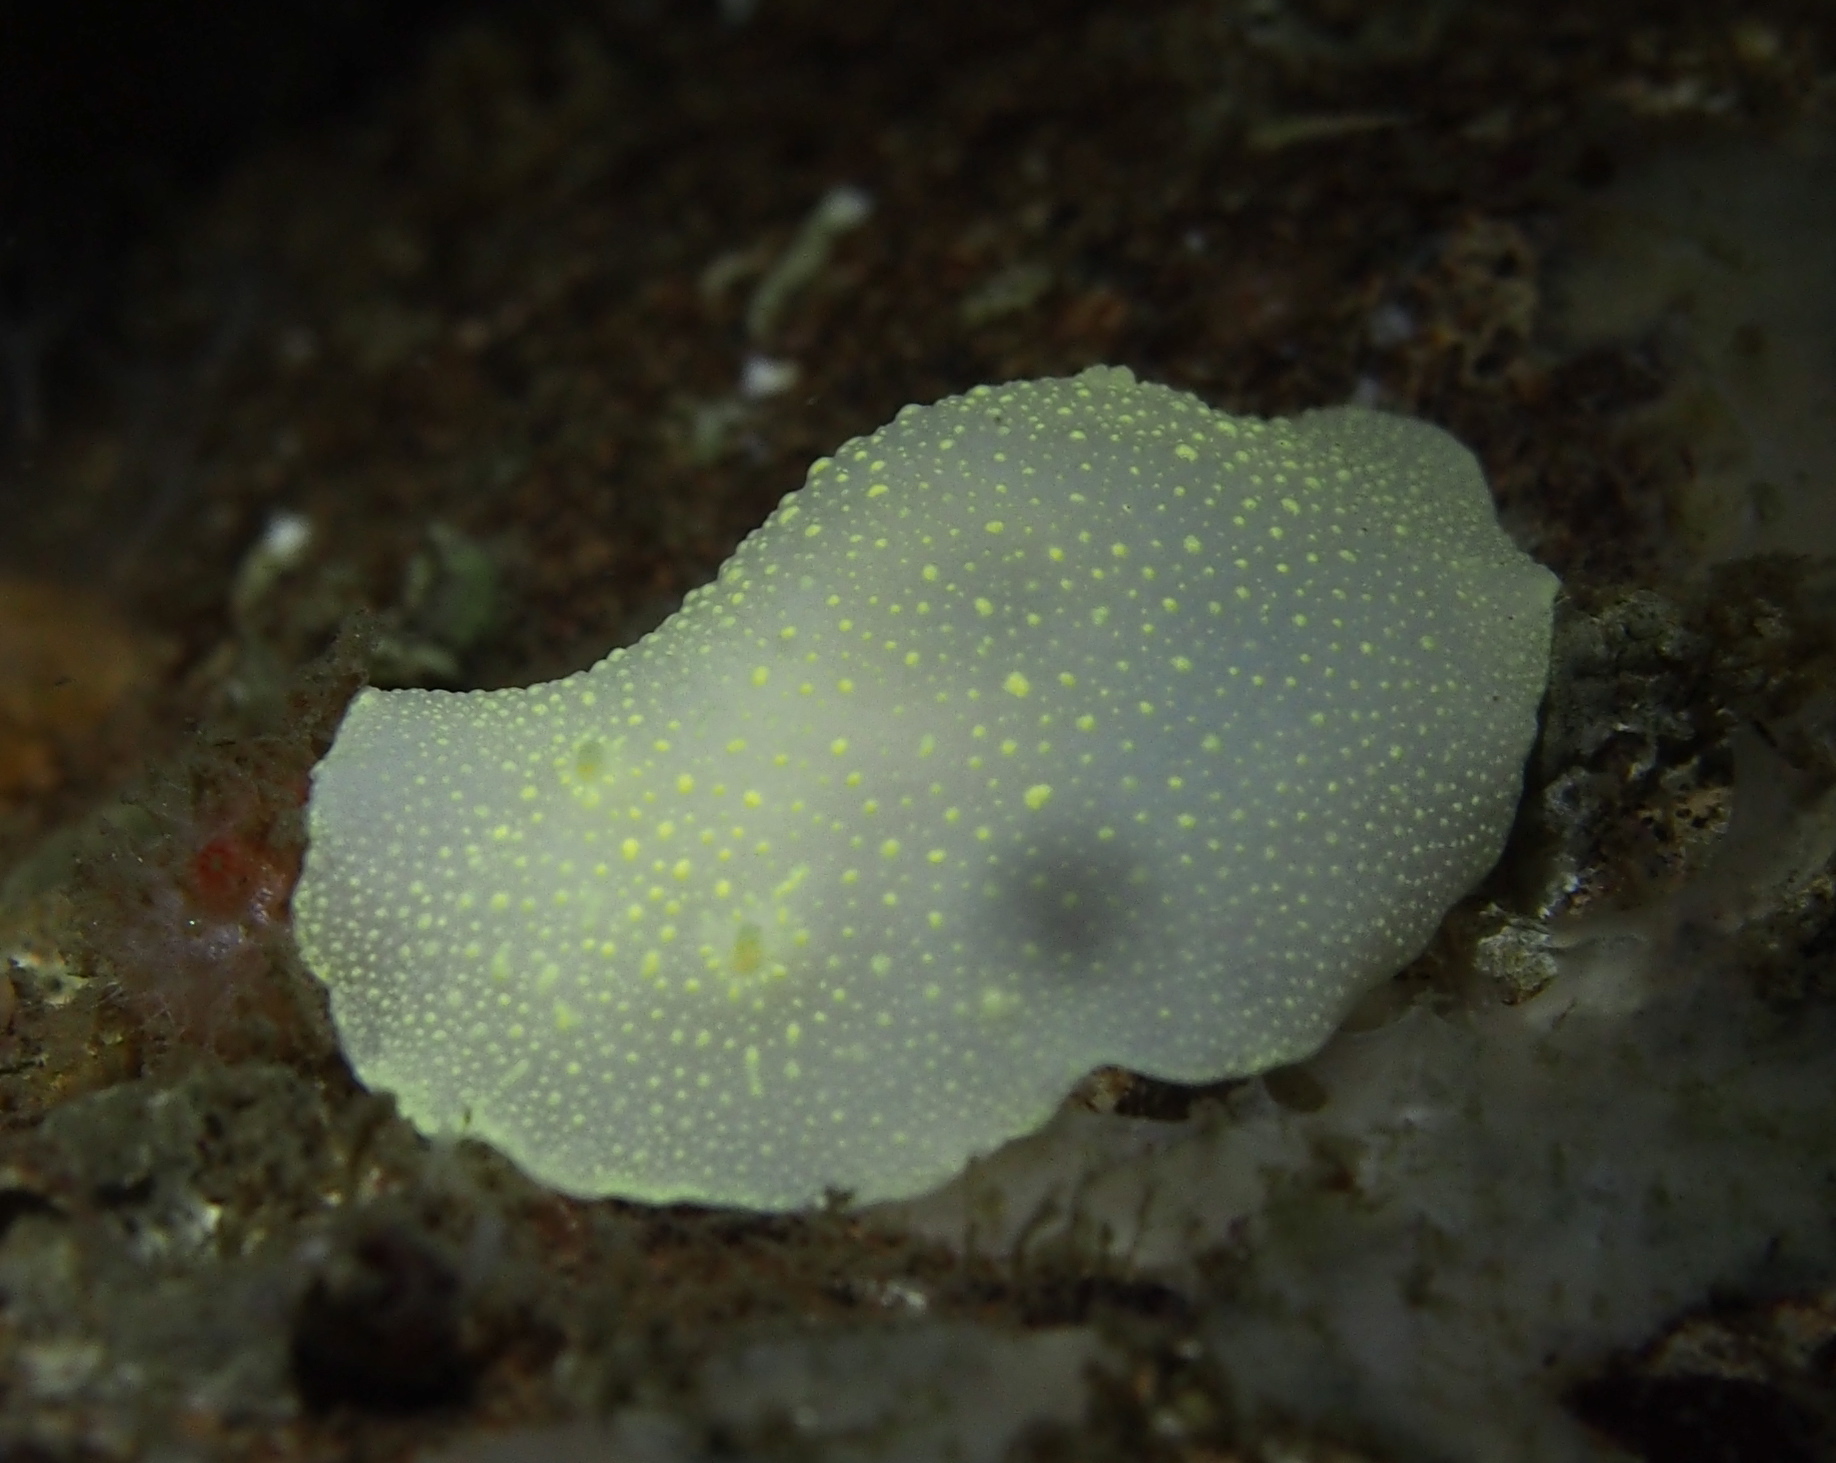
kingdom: Animalia
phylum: Mollusca
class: Gastropoda
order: Nudibranchia
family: Cadlinidae
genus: Cadlina
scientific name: Cadlina laevis
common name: White atlantic cadlina
